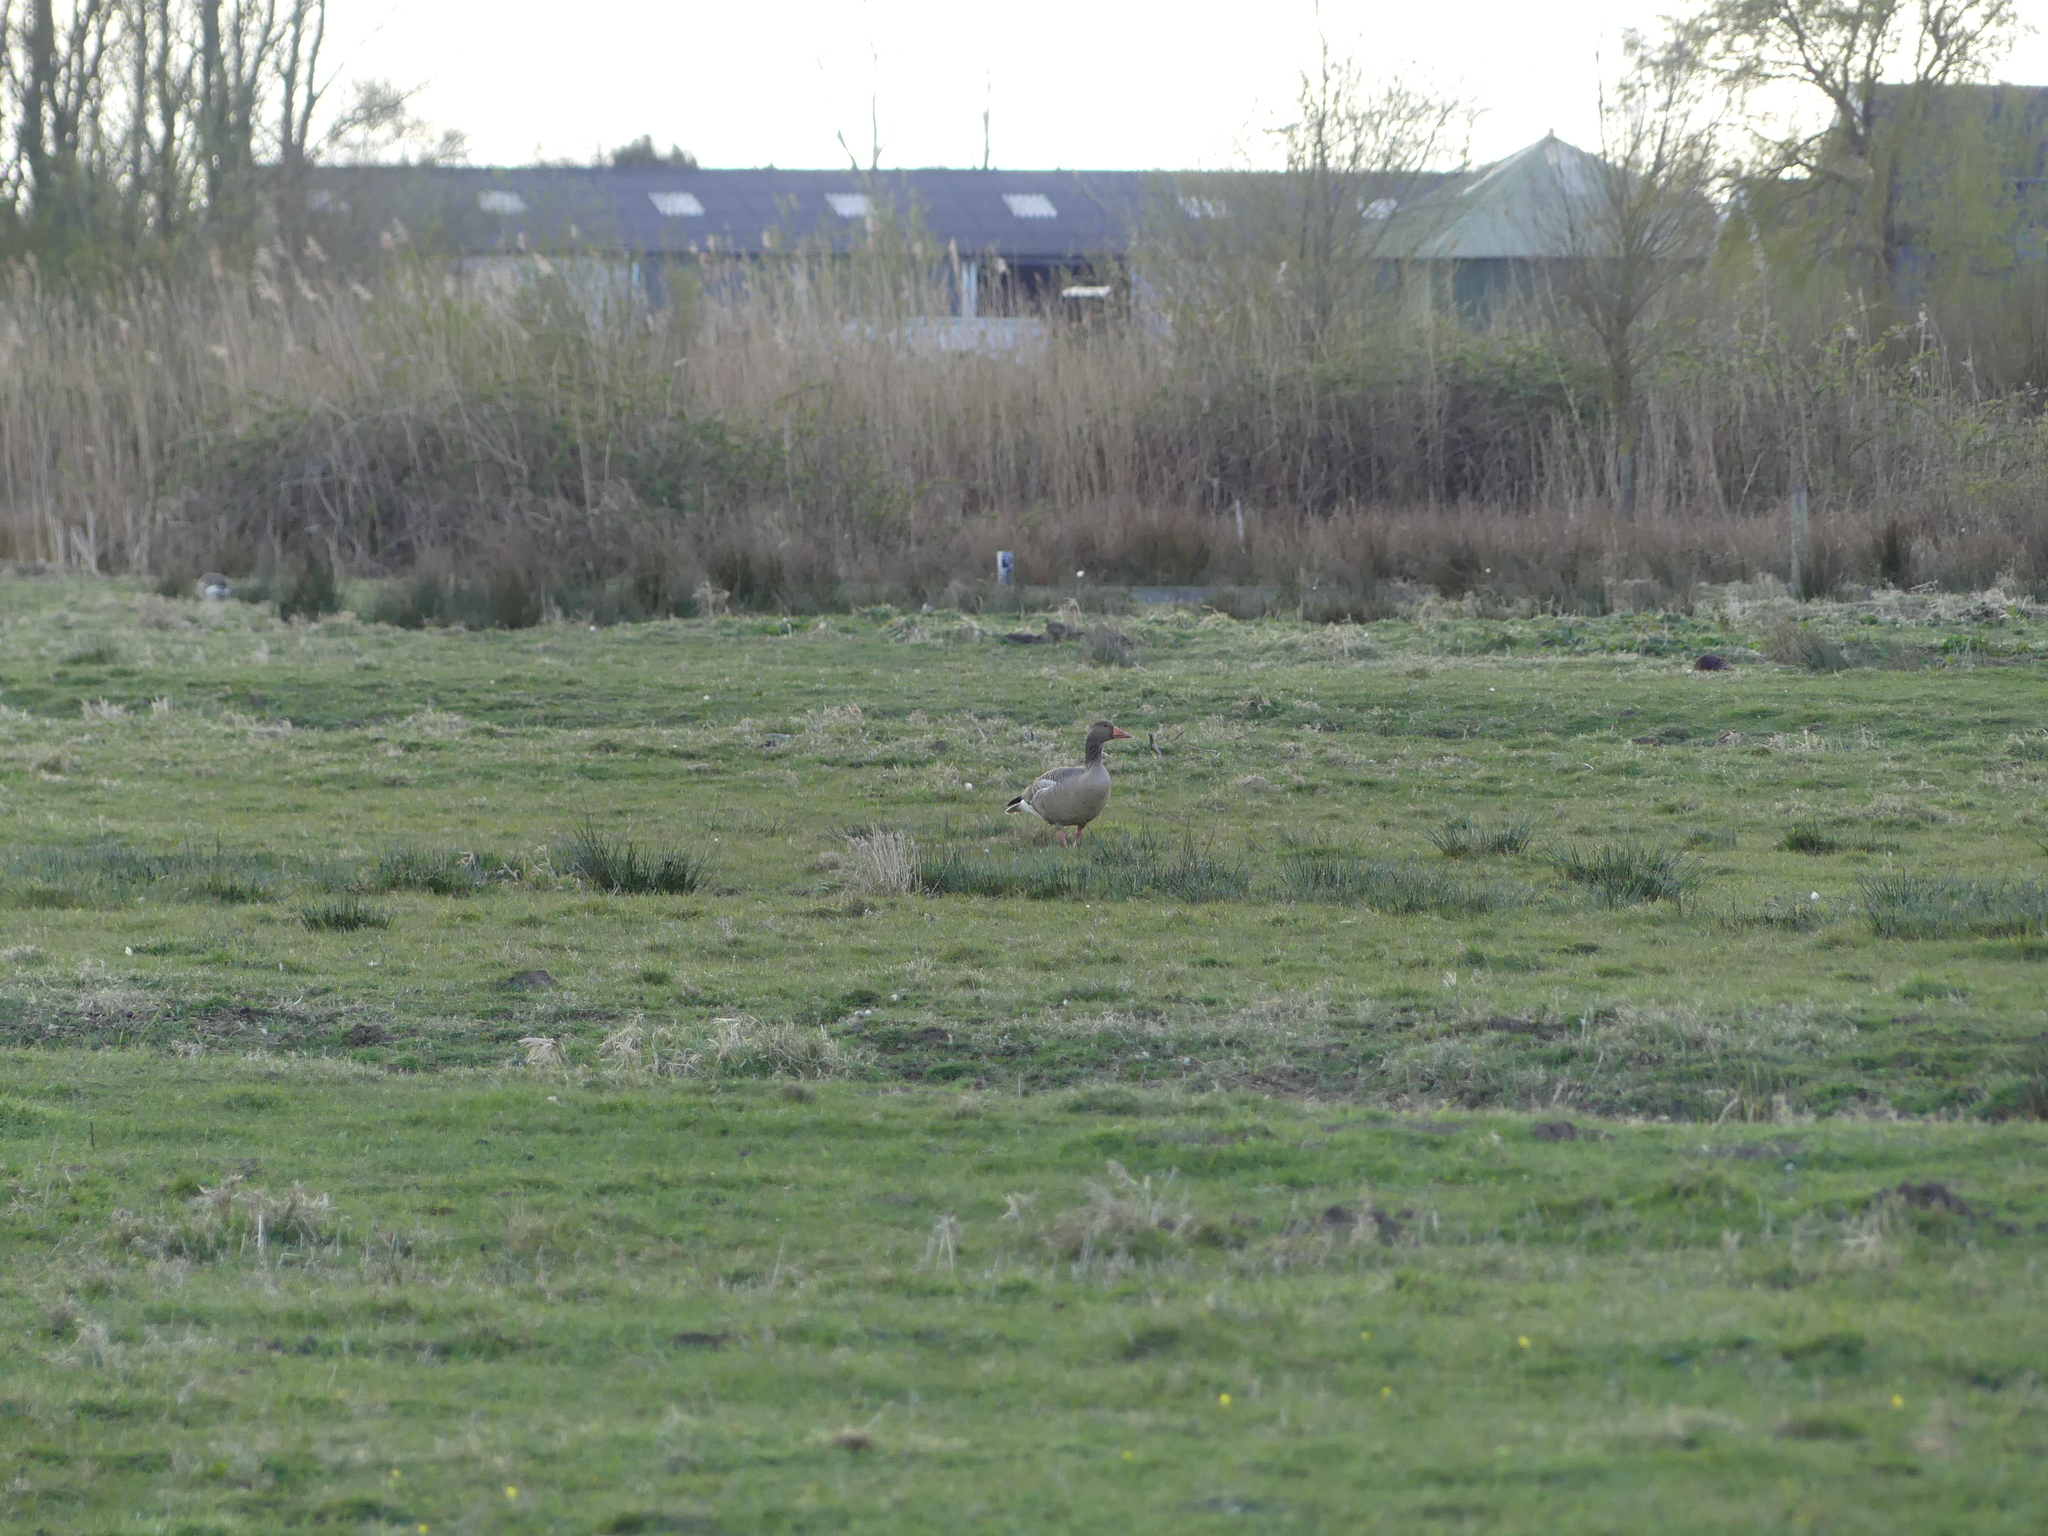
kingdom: Animalia
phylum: Chordata
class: Aves
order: Anseriformes
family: Anatidae
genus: Anser
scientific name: Anser anser
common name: Greylag goose
